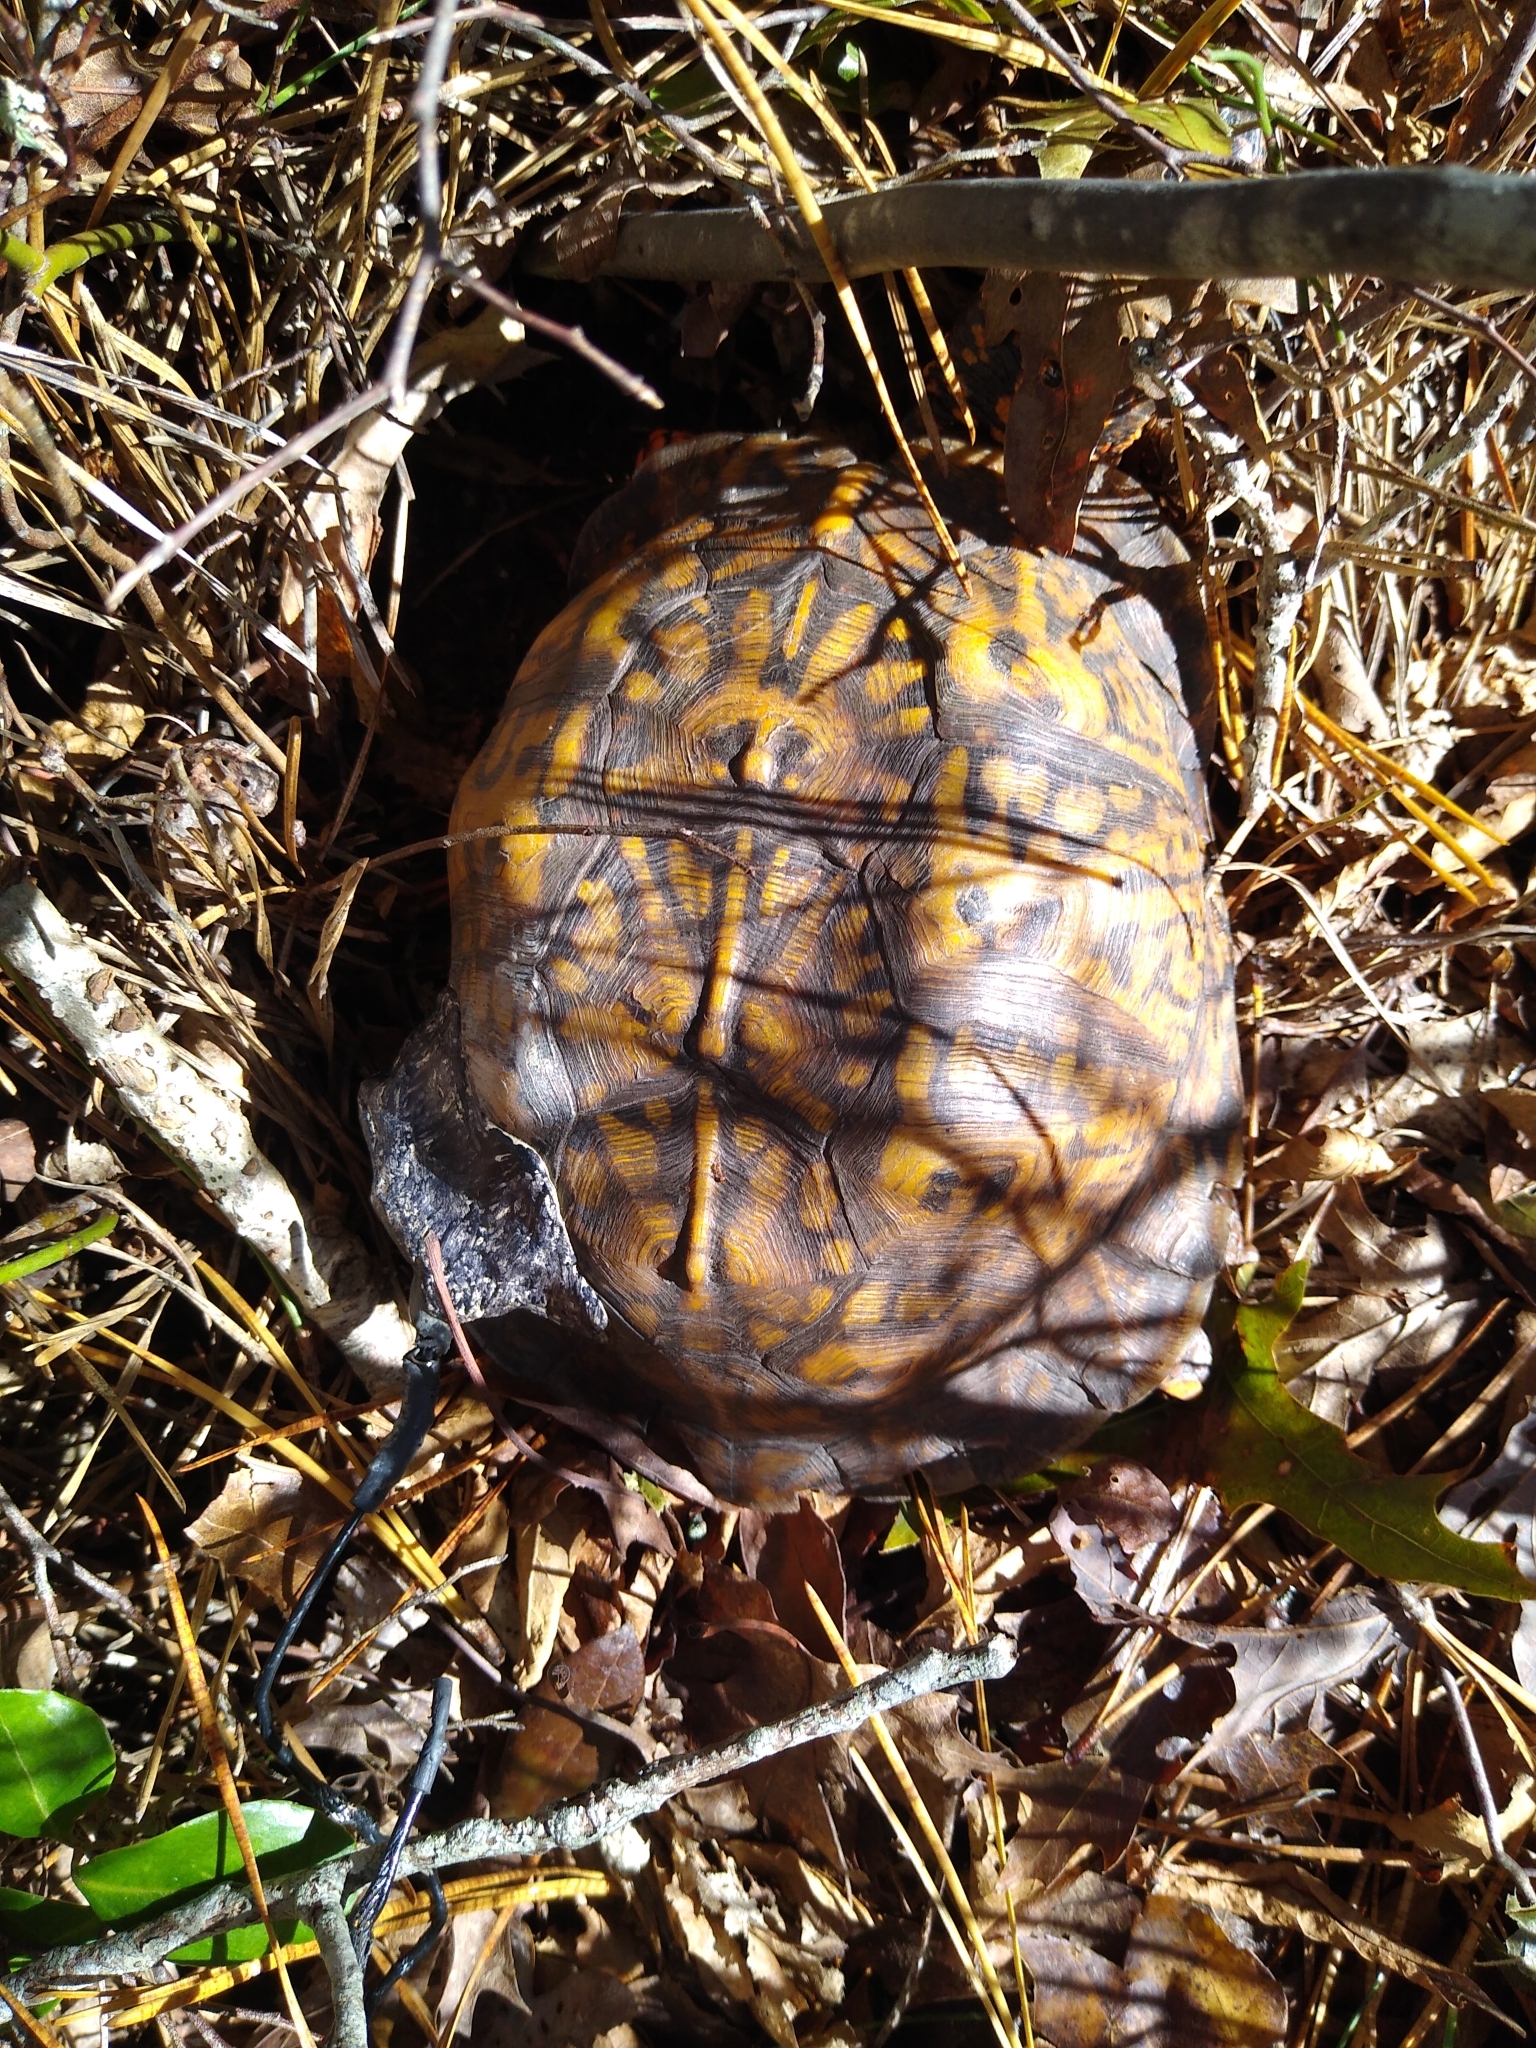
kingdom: Animalia
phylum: Chordata
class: Testudines
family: Emydidae
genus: Terrapene
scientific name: Terrapene carolina
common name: Common box turtle
